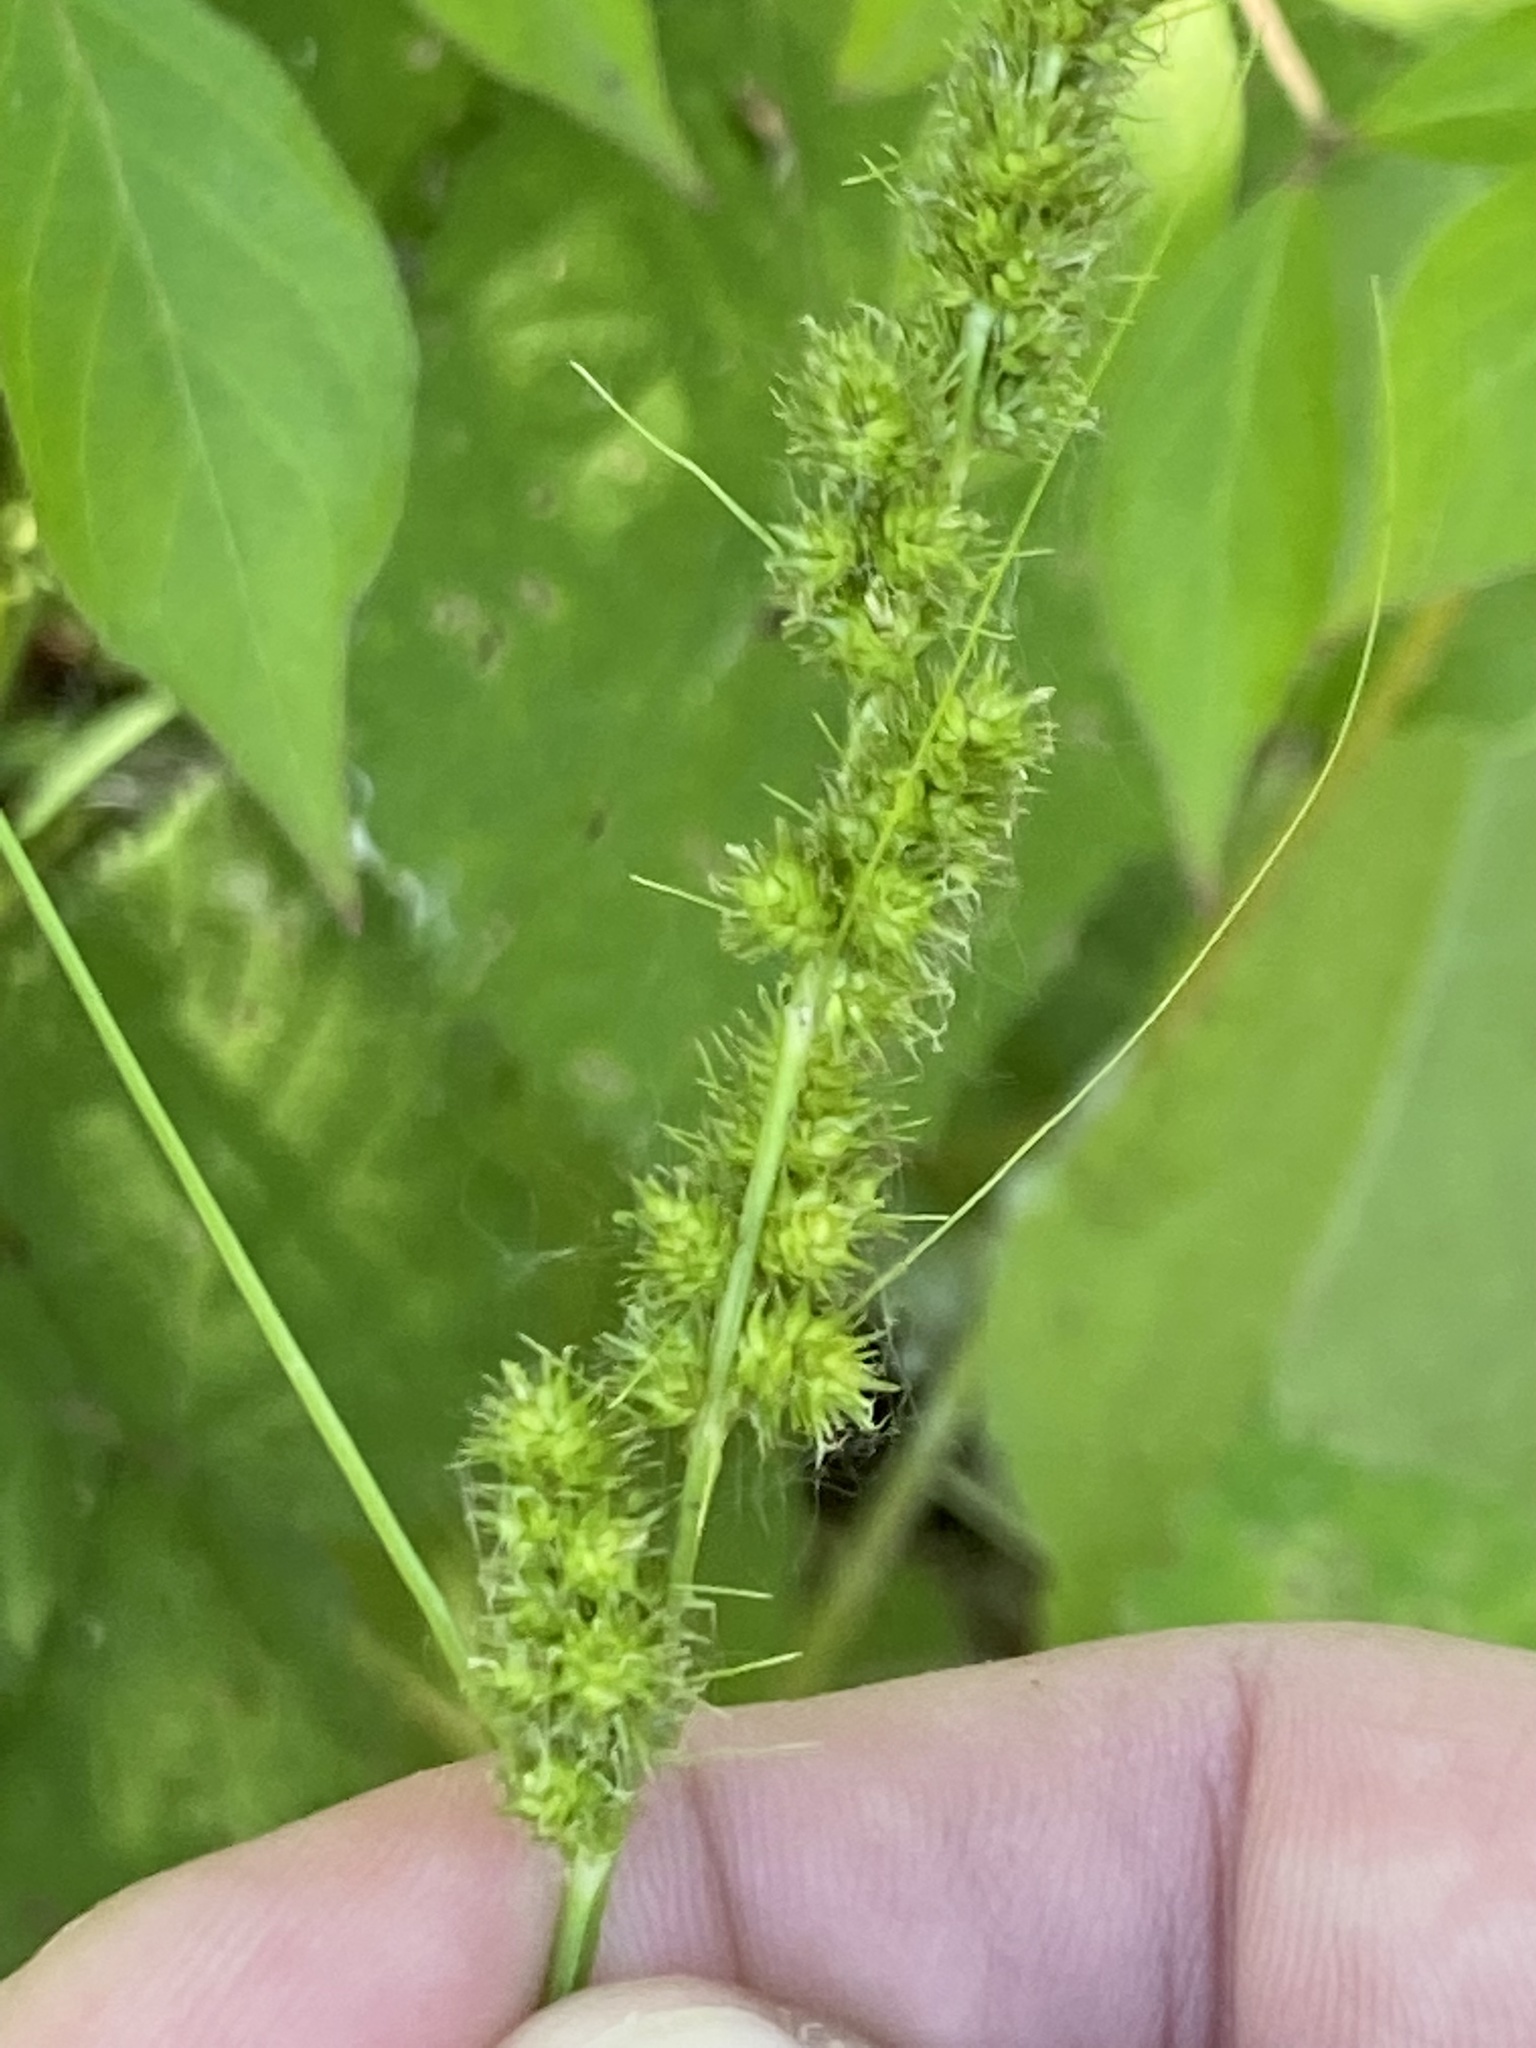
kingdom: Plantae
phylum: Tracheophyta
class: Liliopsida
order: Poales
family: Cyperaceae
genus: Carex
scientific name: Carex vulpinoidea
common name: American fox-sedge
